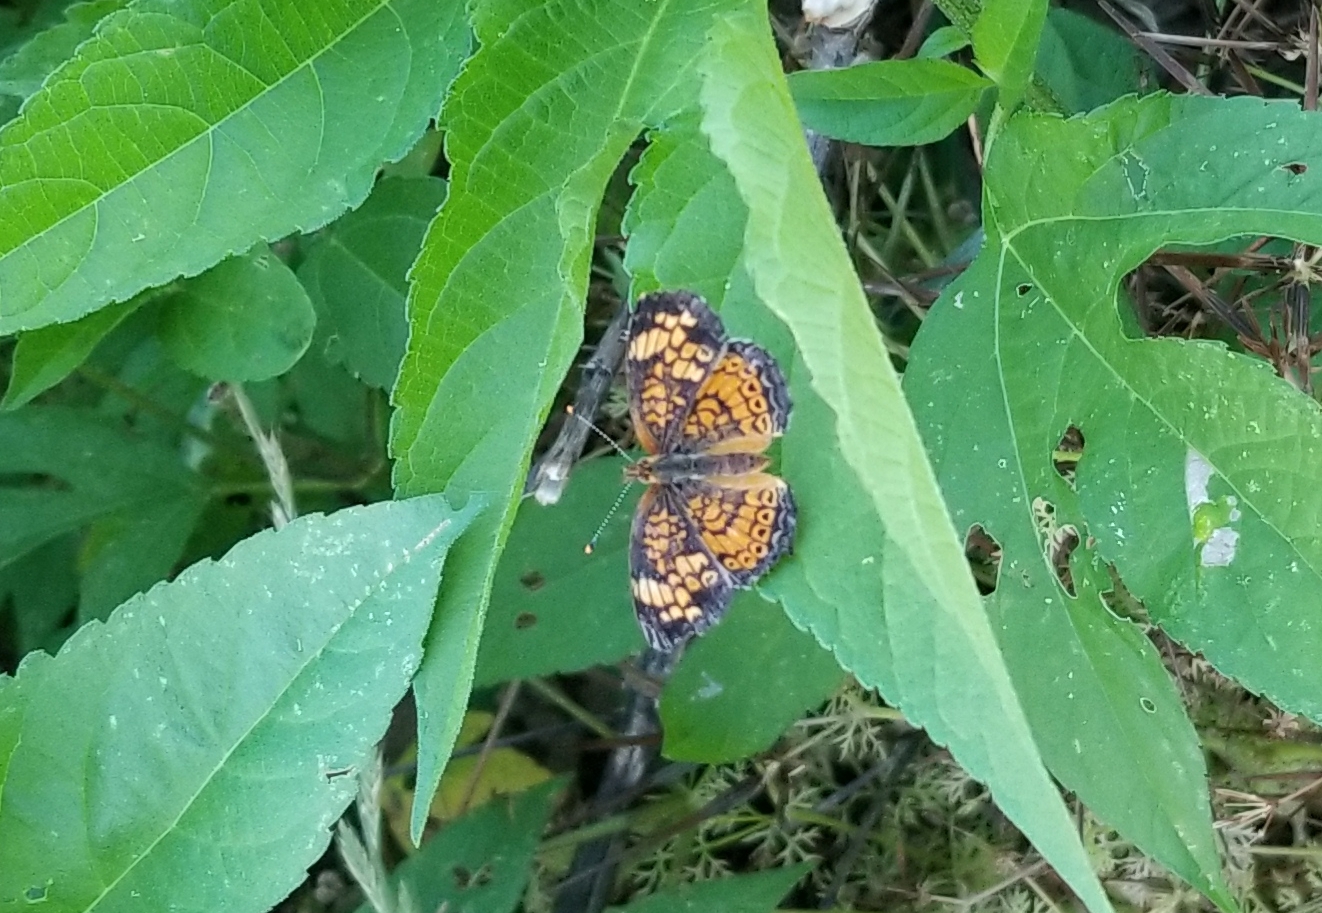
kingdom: Animalia
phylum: Arthropoda
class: Insecta
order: Lepidoptera
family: Nymphalidae
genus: Phyciodes
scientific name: Phyciodes tharos
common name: Pearl crescent
